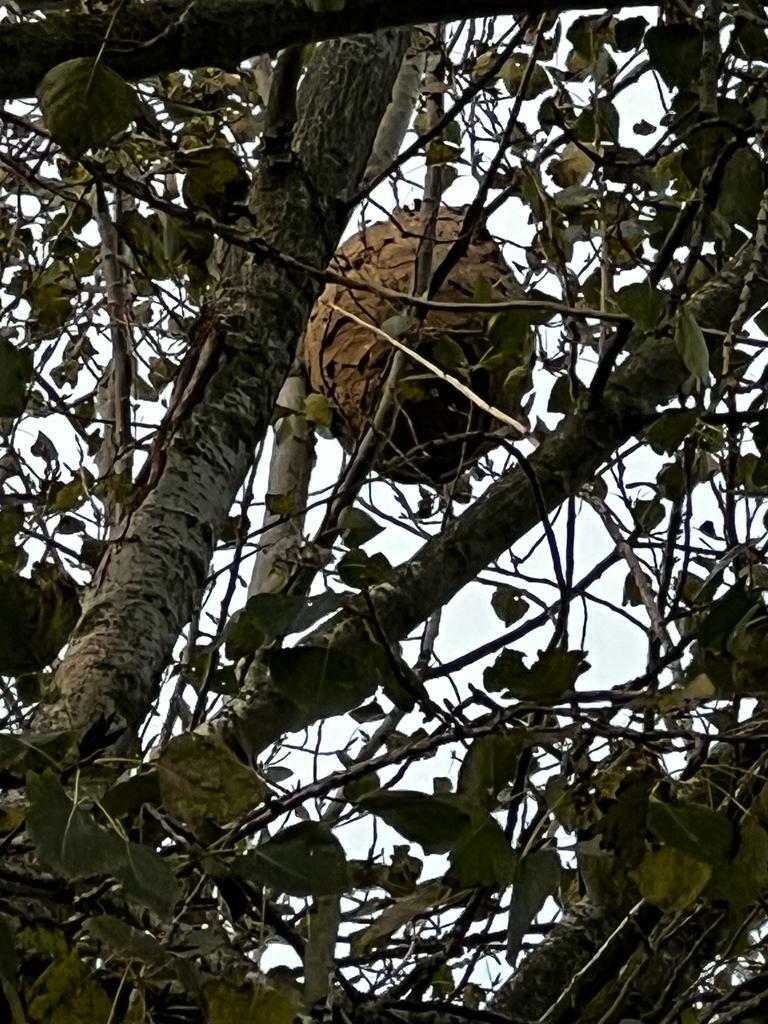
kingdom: Animalia
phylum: Arthropoda
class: Insecta
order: Hymenoptera
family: Vespidae
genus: Vespa
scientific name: Vespa velutina
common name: Asian hornet
